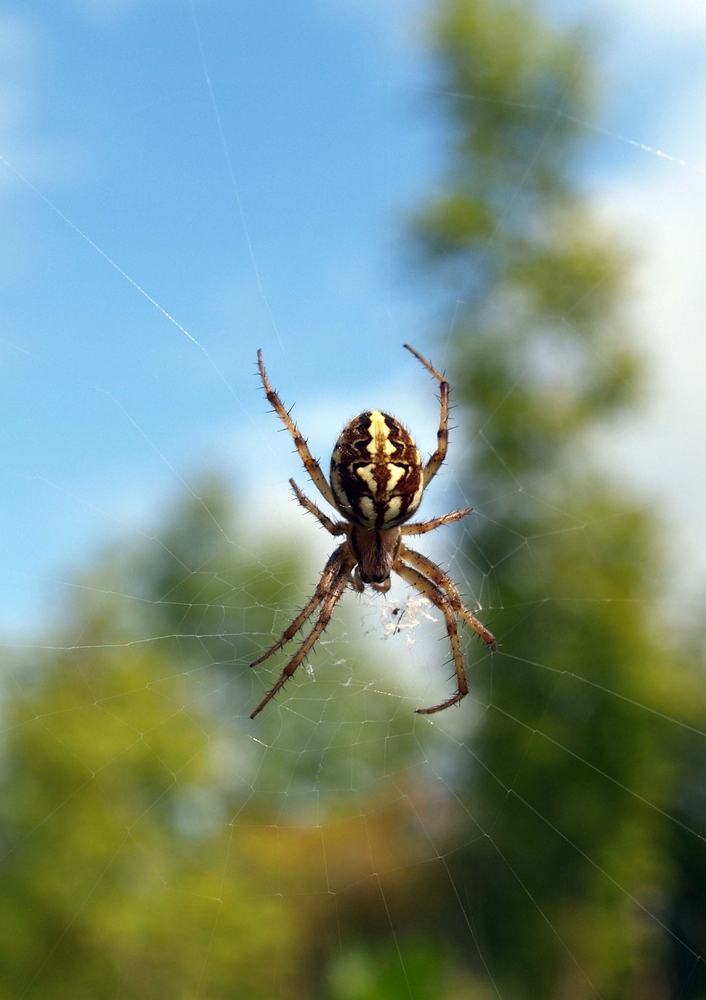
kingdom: Animalia
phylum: Arthropoda
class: Arachnida
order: Araneae
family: Araneidae
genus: Neoscona
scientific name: Neoscona adianta
